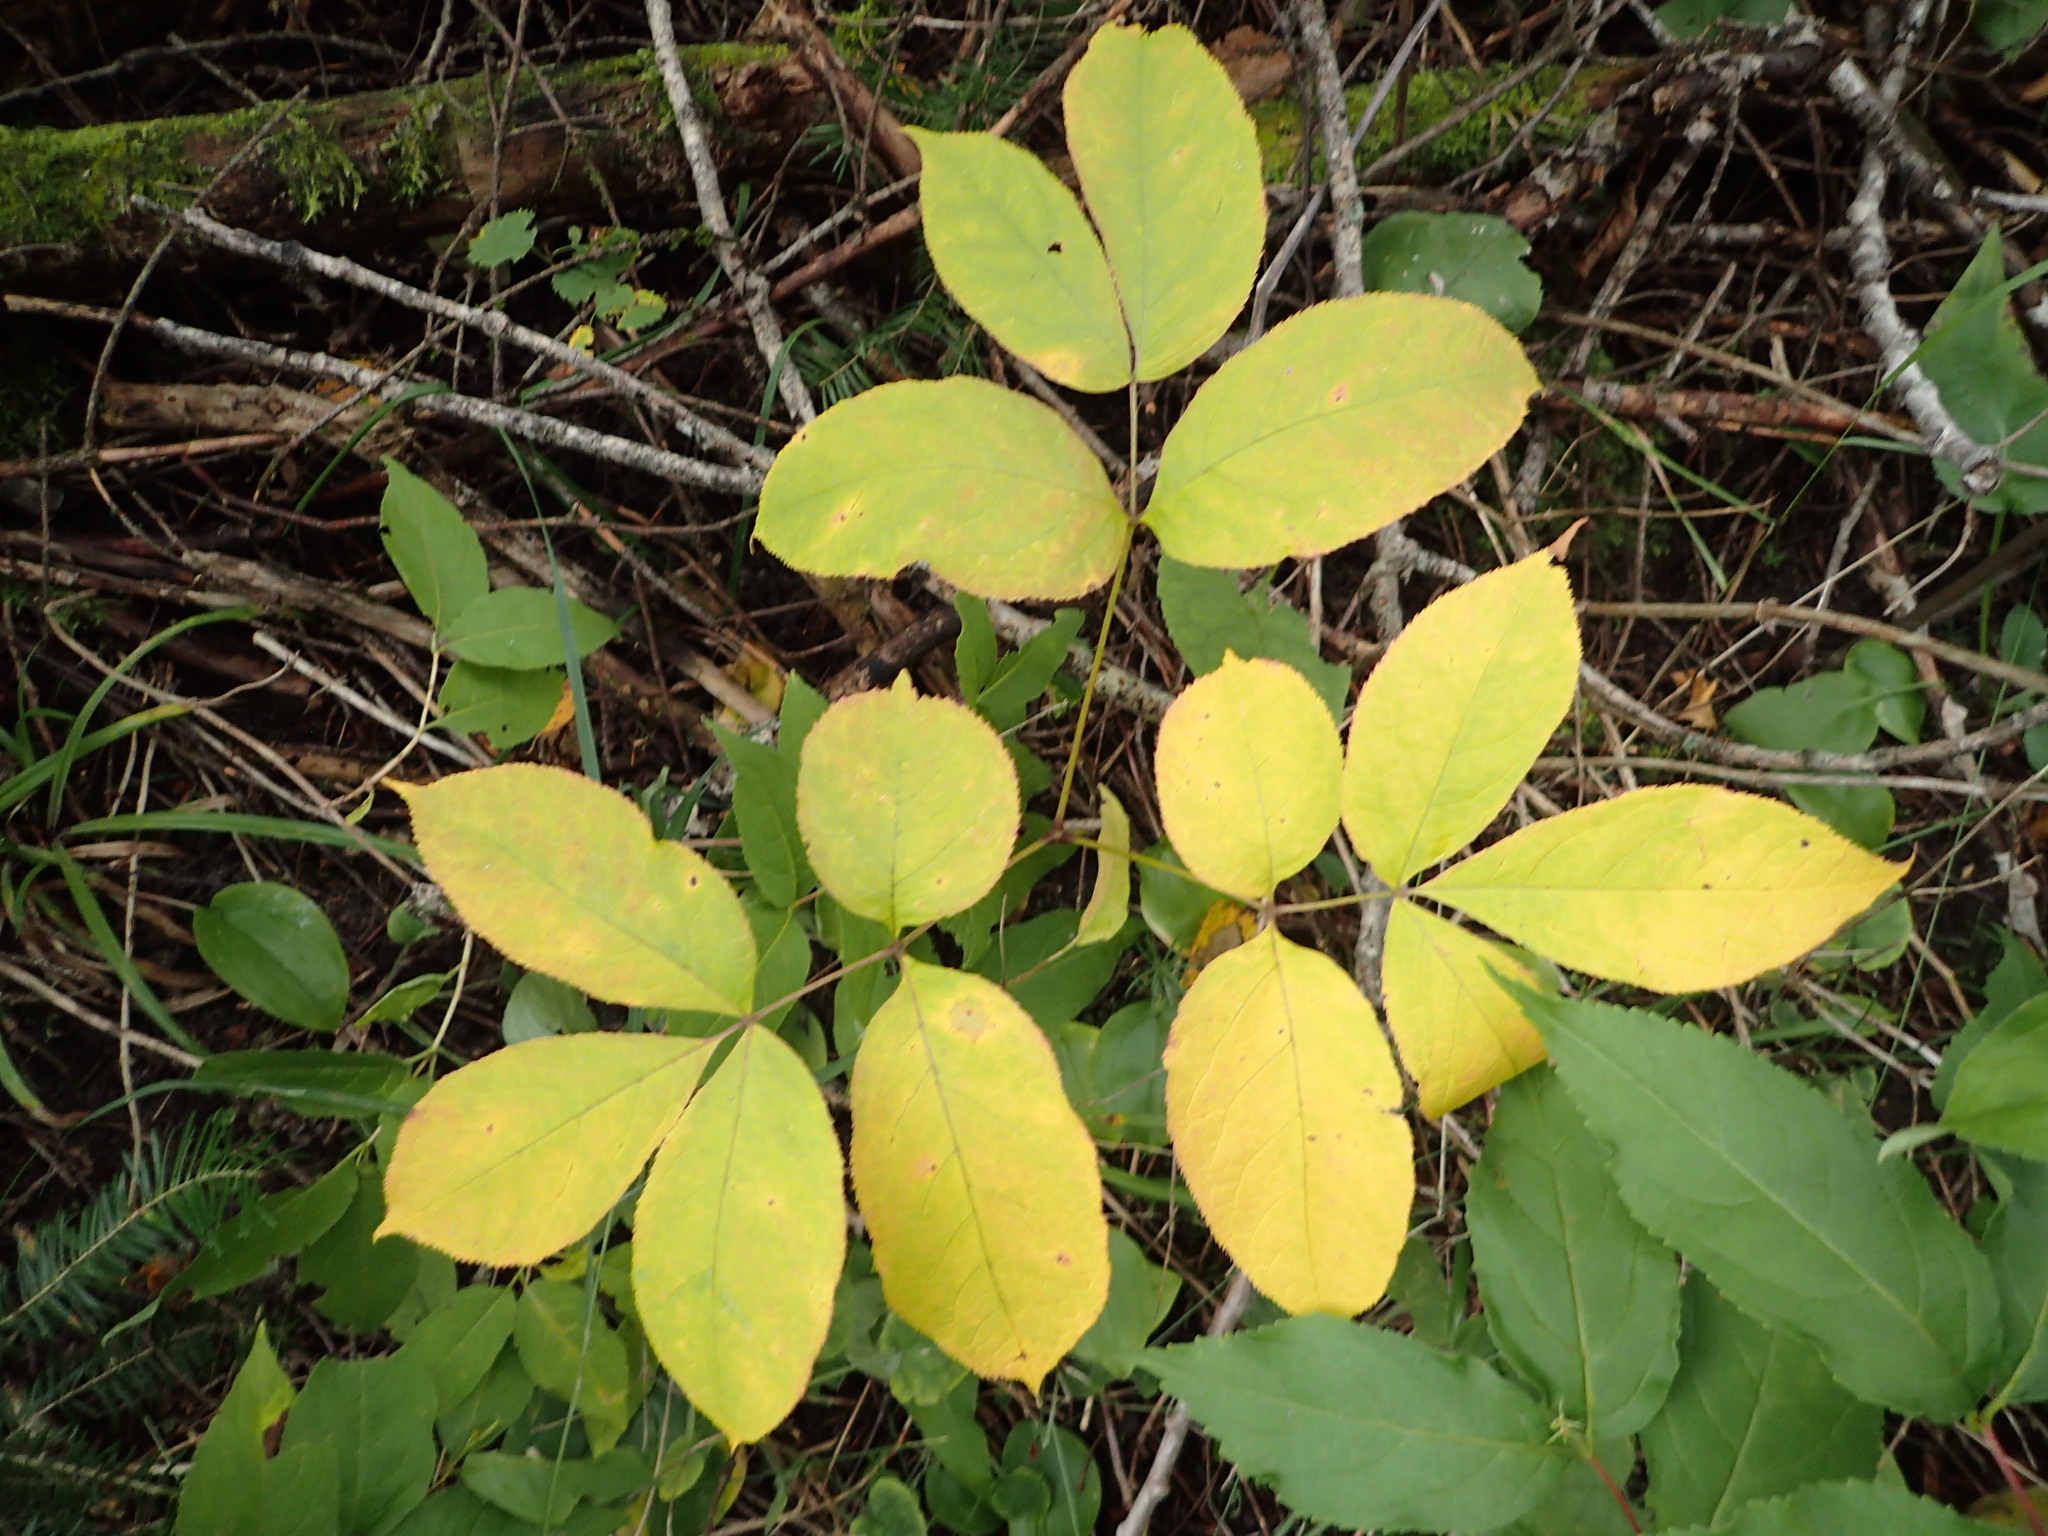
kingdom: Plantae
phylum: Tracheophyta
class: Magnoliopsida
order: Apiales
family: Araliaceae
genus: Aralia
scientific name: Aralia nudicaulis
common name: Wild sarsaparilla
